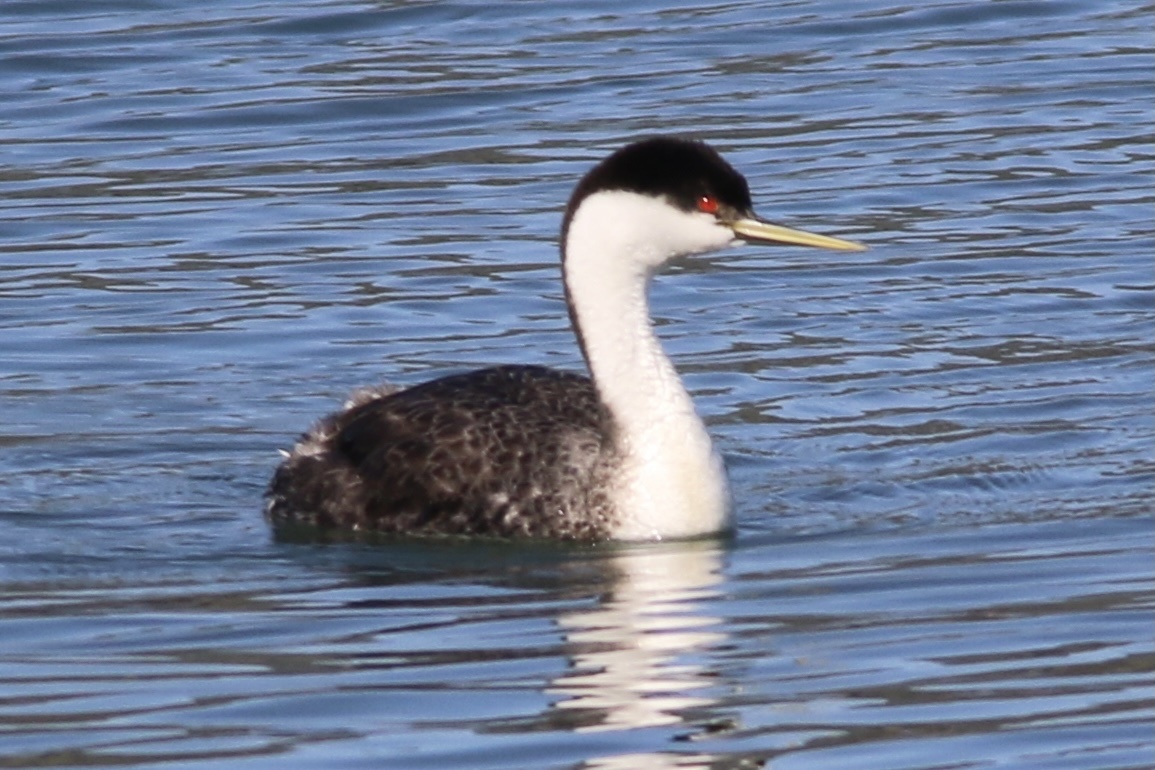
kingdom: Animalia
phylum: Chordata
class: Aves
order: Podicipediformes
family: Podicipedidae
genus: Aechmophorus
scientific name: Aechmophorus occidentalis
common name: Western grebe
